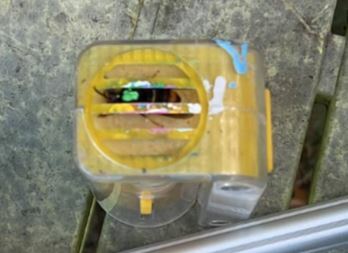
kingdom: Animalia
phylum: Arthropoda
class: Insecta
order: Hymenoptera
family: Vespidae
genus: Vespa
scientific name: Vespa velutina
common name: Asian hornet
